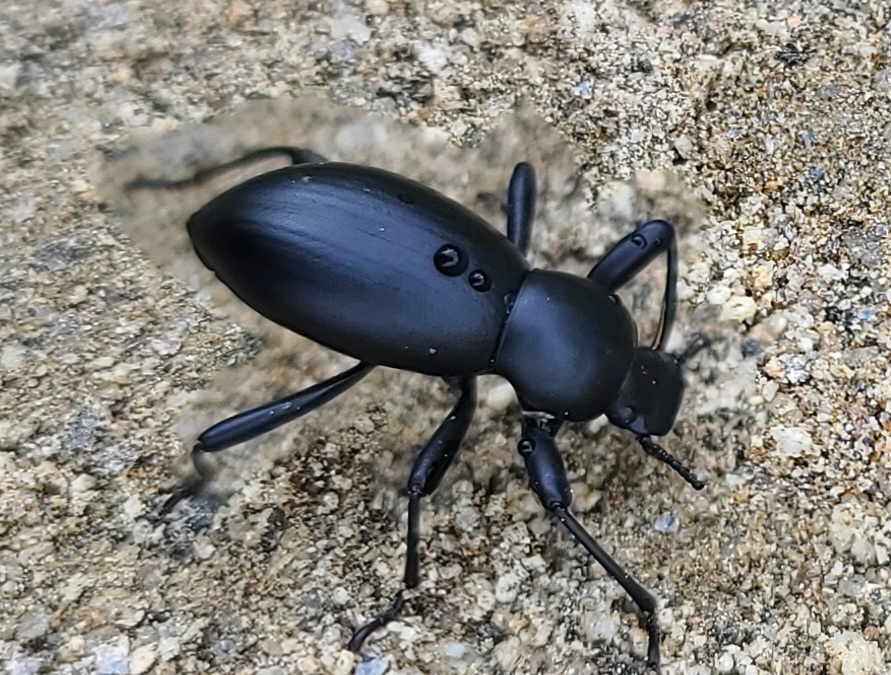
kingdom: Animalia
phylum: Arthropoda
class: Insecta
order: Coleoptera
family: Tenebrionidae
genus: Coelocnemis
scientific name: Coelocnemis dilaticollis
